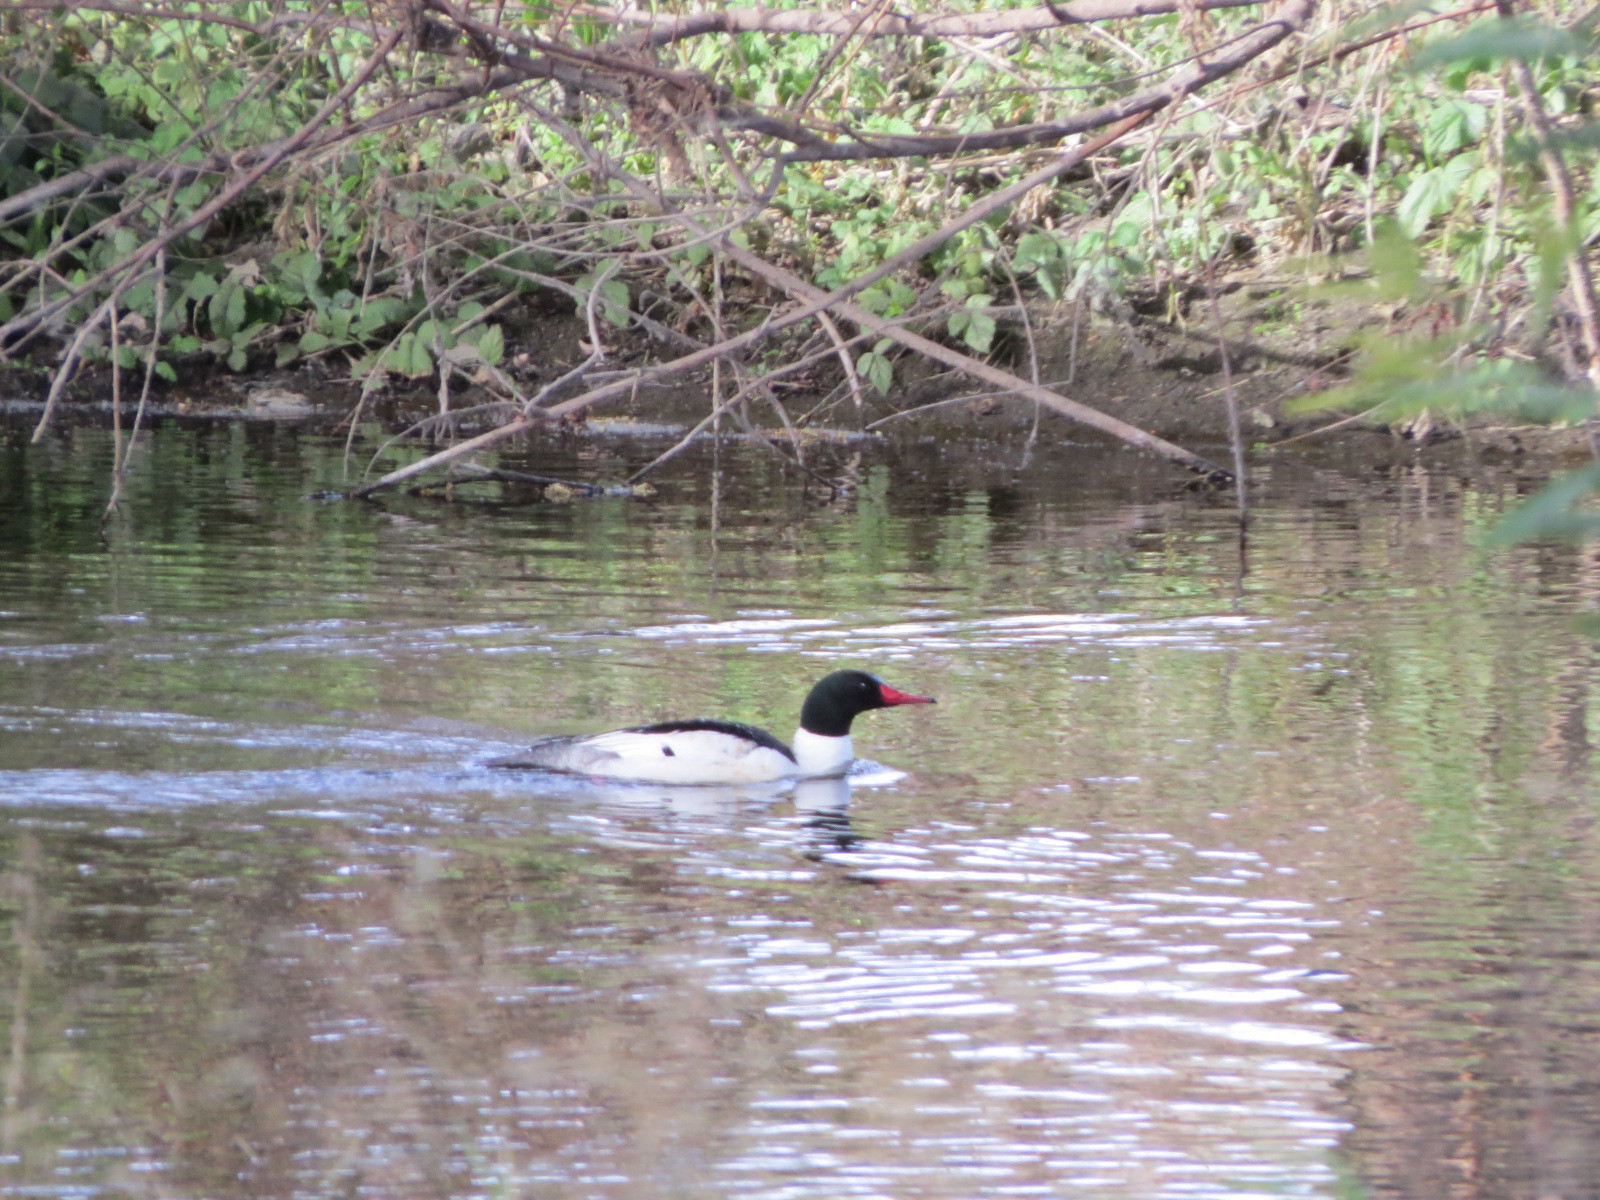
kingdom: Animalia
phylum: Chordata
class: Aves
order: Anseriformes
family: Anatidae
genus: Mergus
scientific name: Mergus merganser
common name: Common merganser
